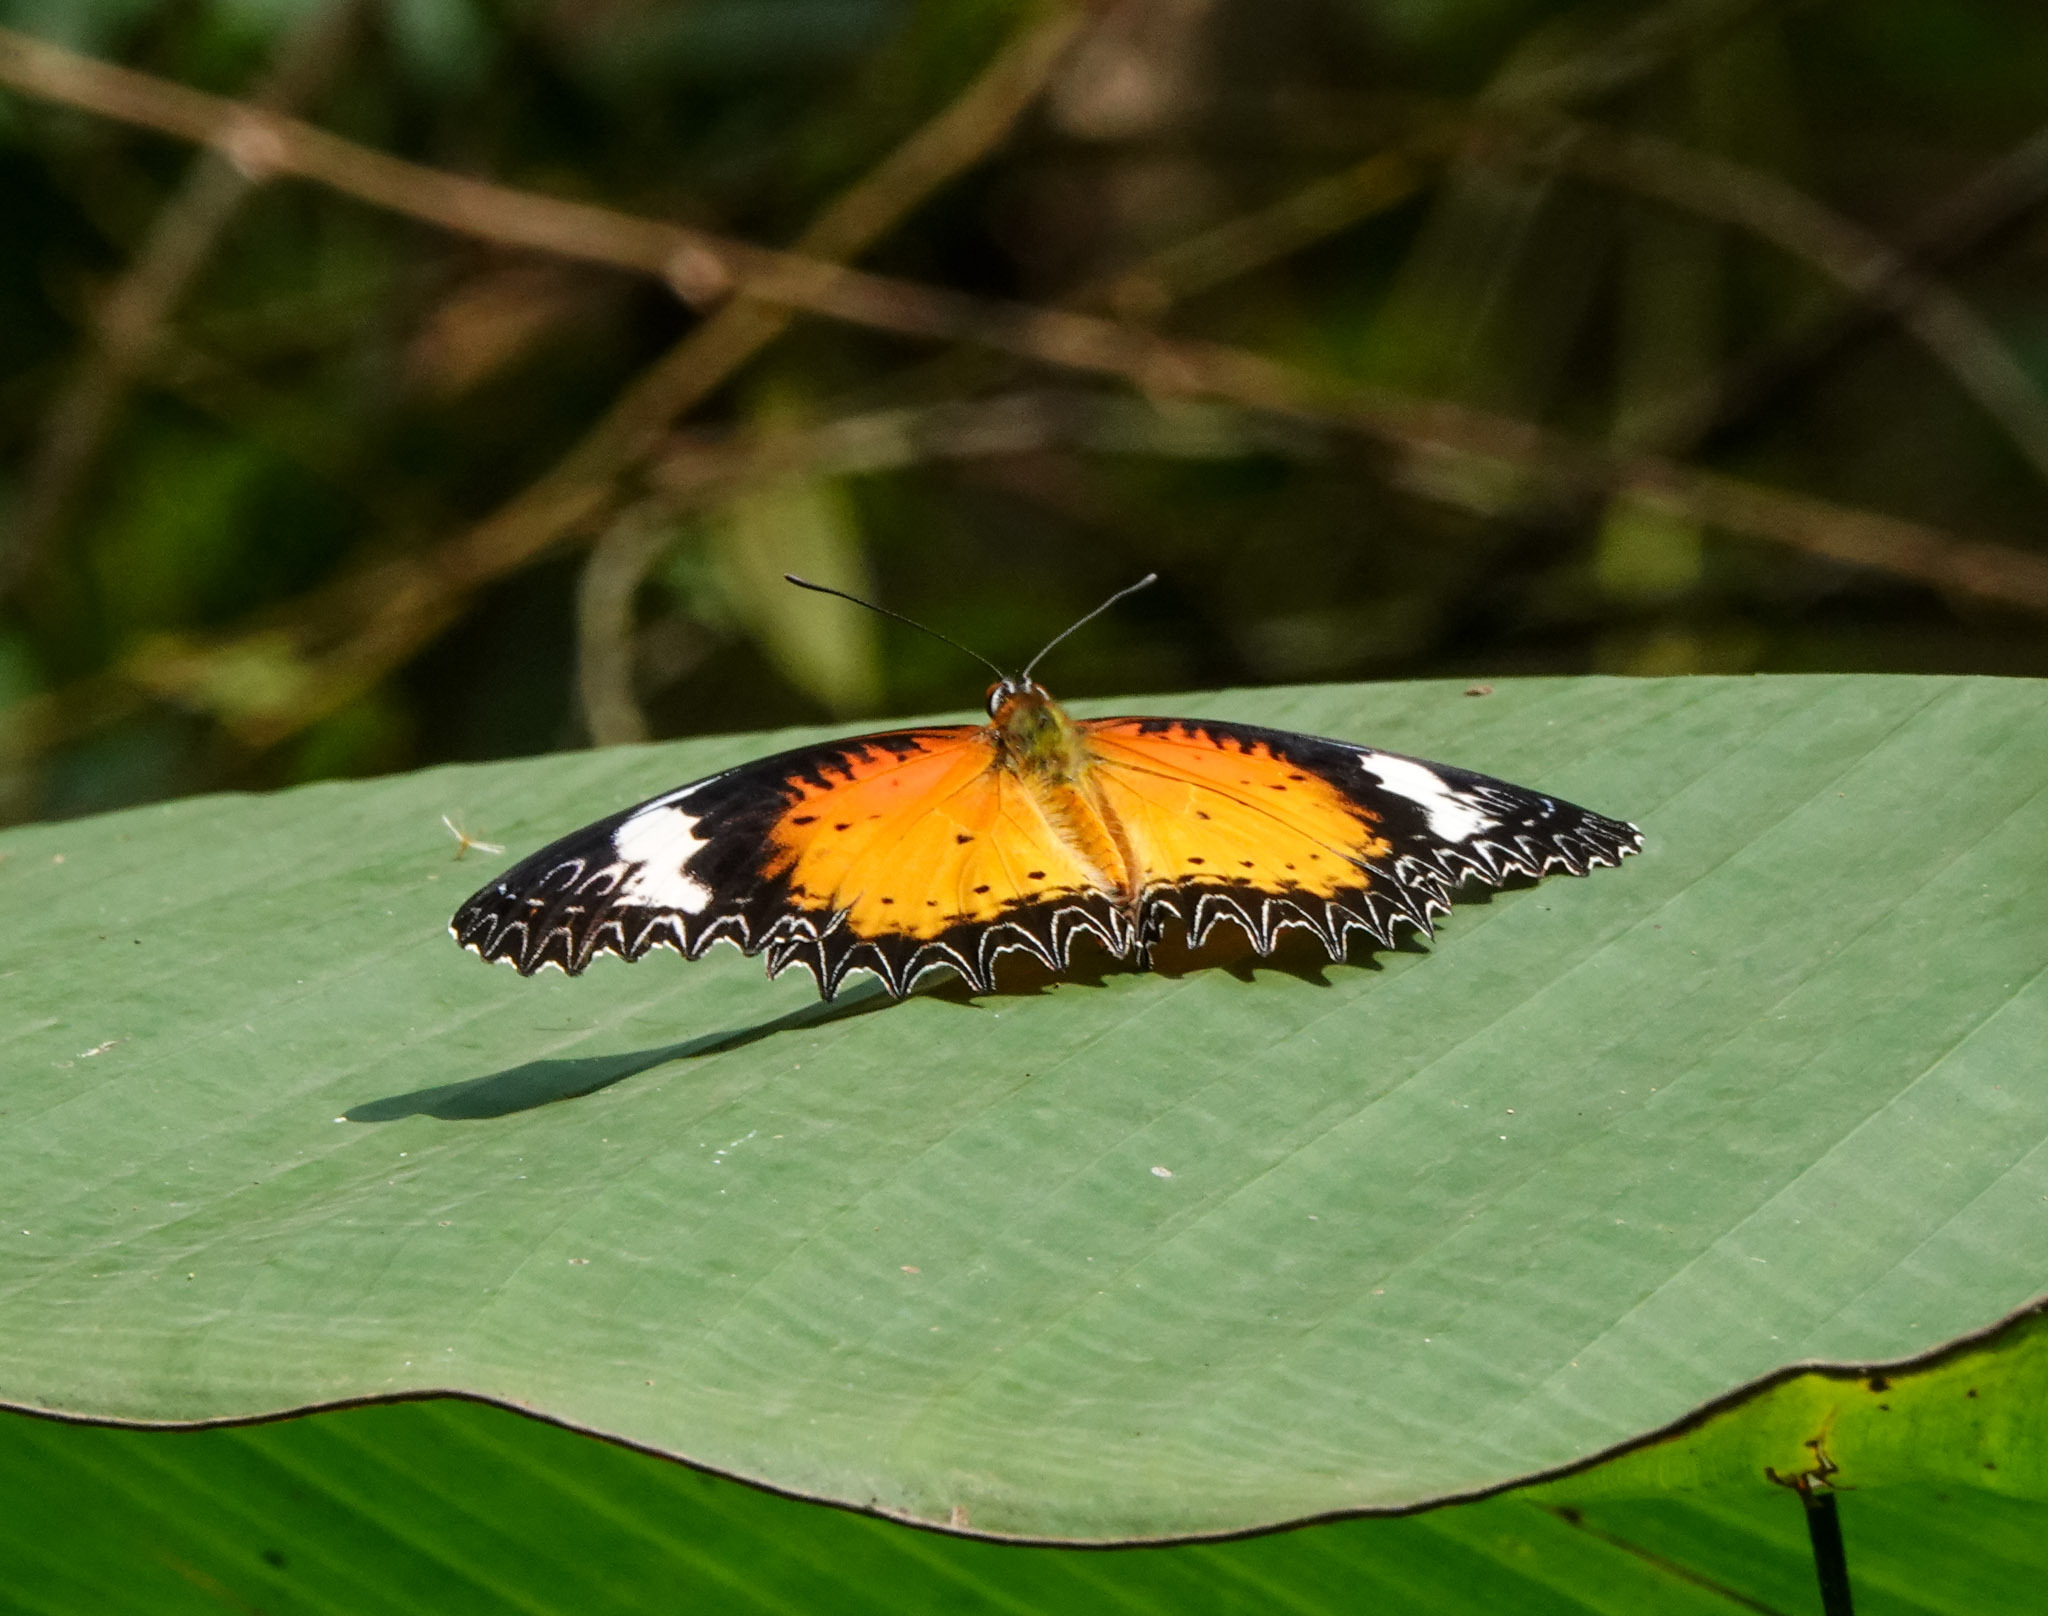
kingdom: Animalia
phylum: Arthropoda
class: Insecta
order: Lepidoptera
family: Nymphalidae
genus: Cethosia
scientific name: Cethosia cyane
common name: Leopard lacewing butterfly
